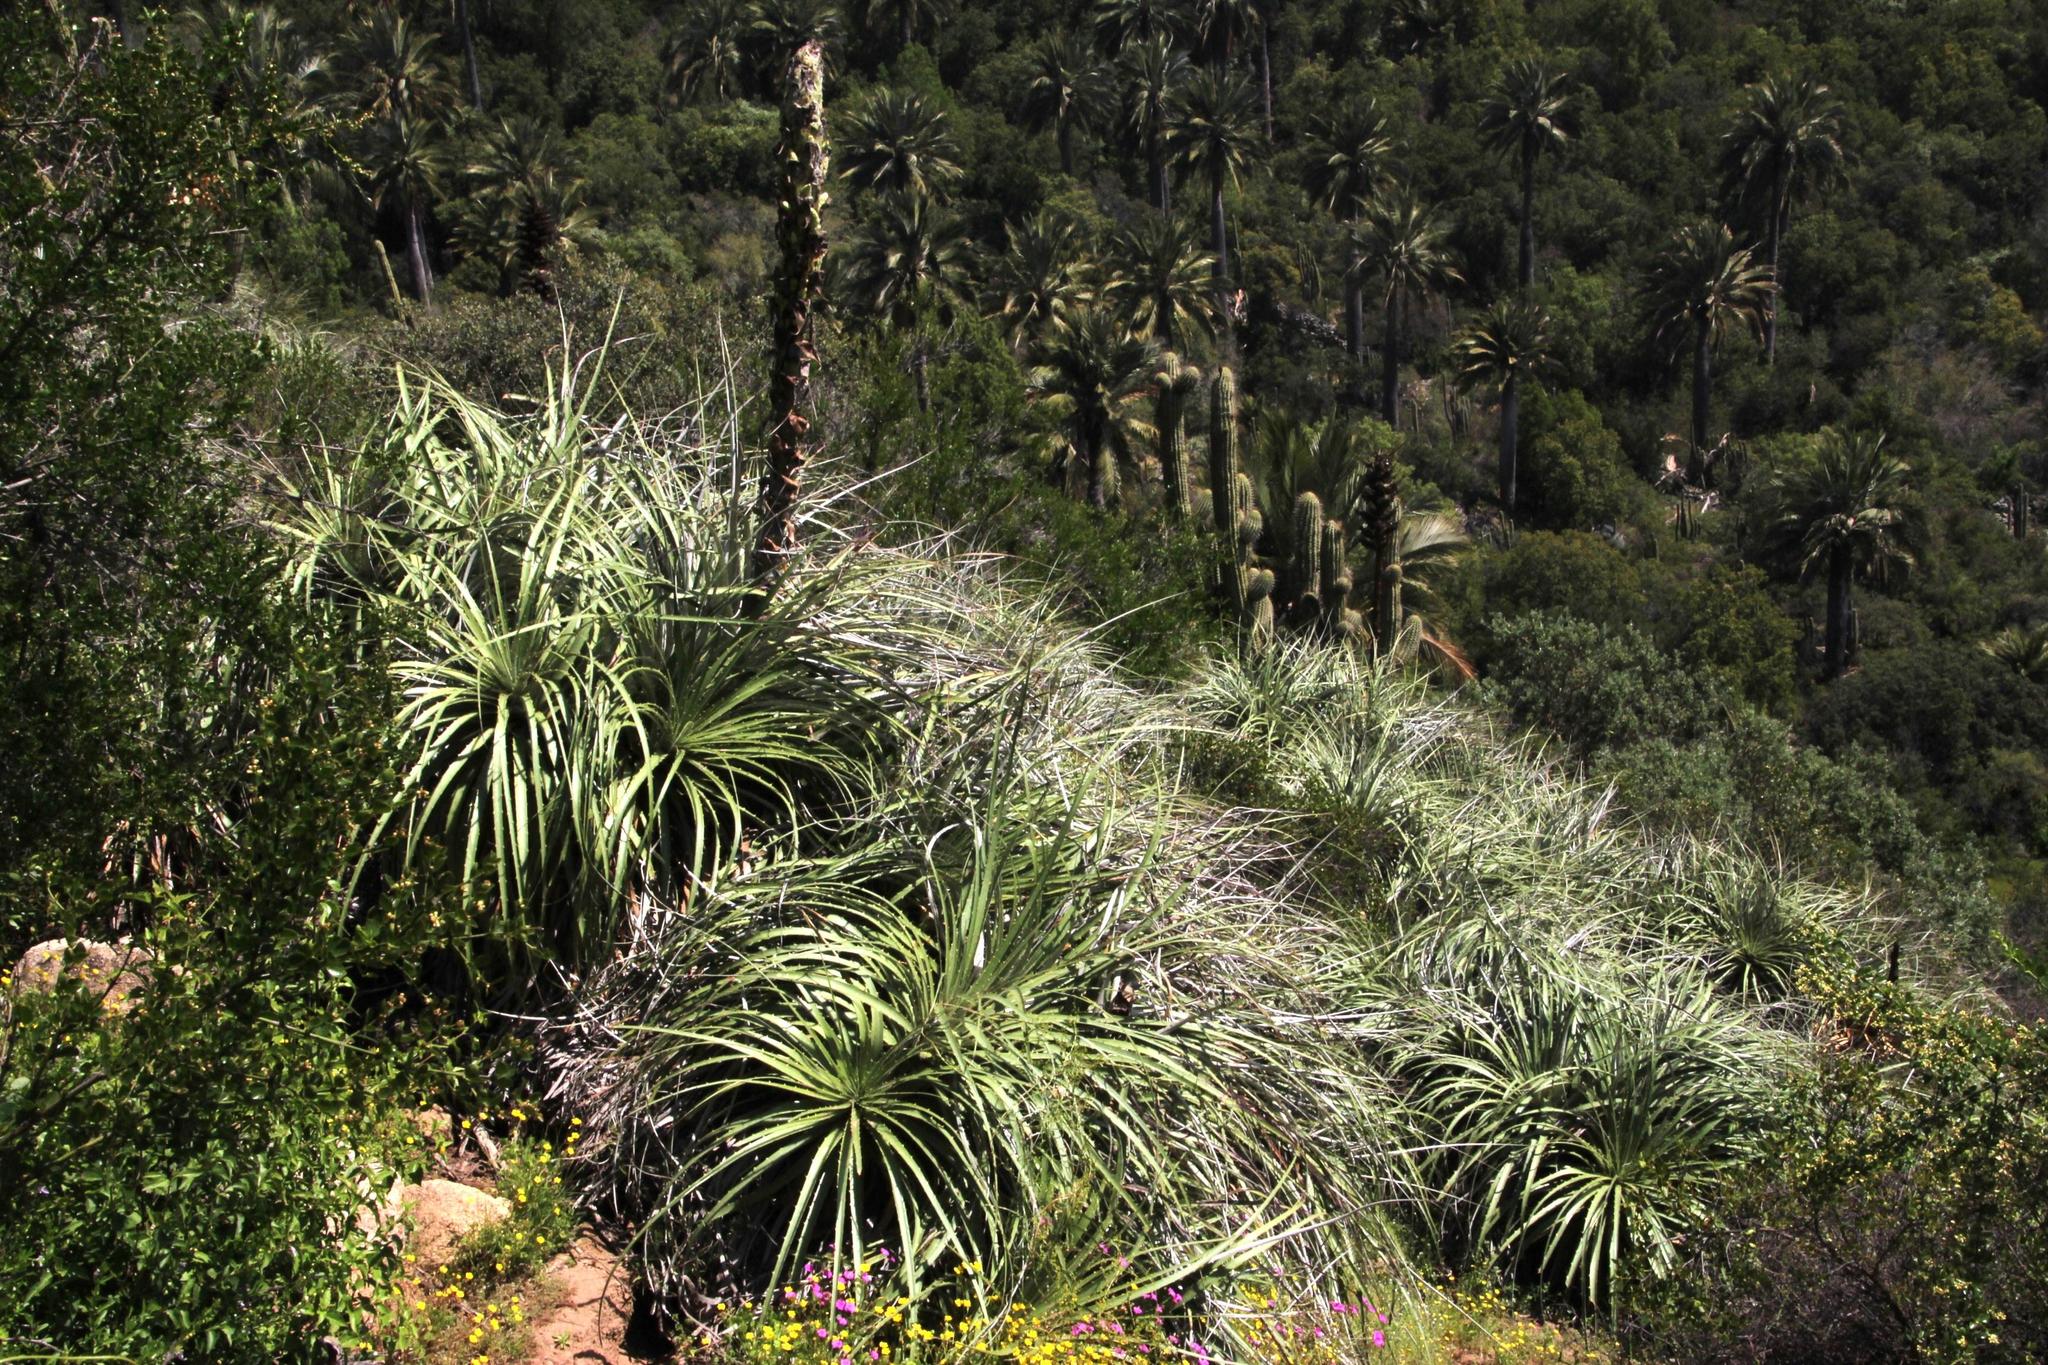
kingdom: Plantae
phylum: Tracheophyta
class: Liliopsida
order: Poales
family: Bromeliaceae
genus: Puya
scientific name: Puya alpestris
